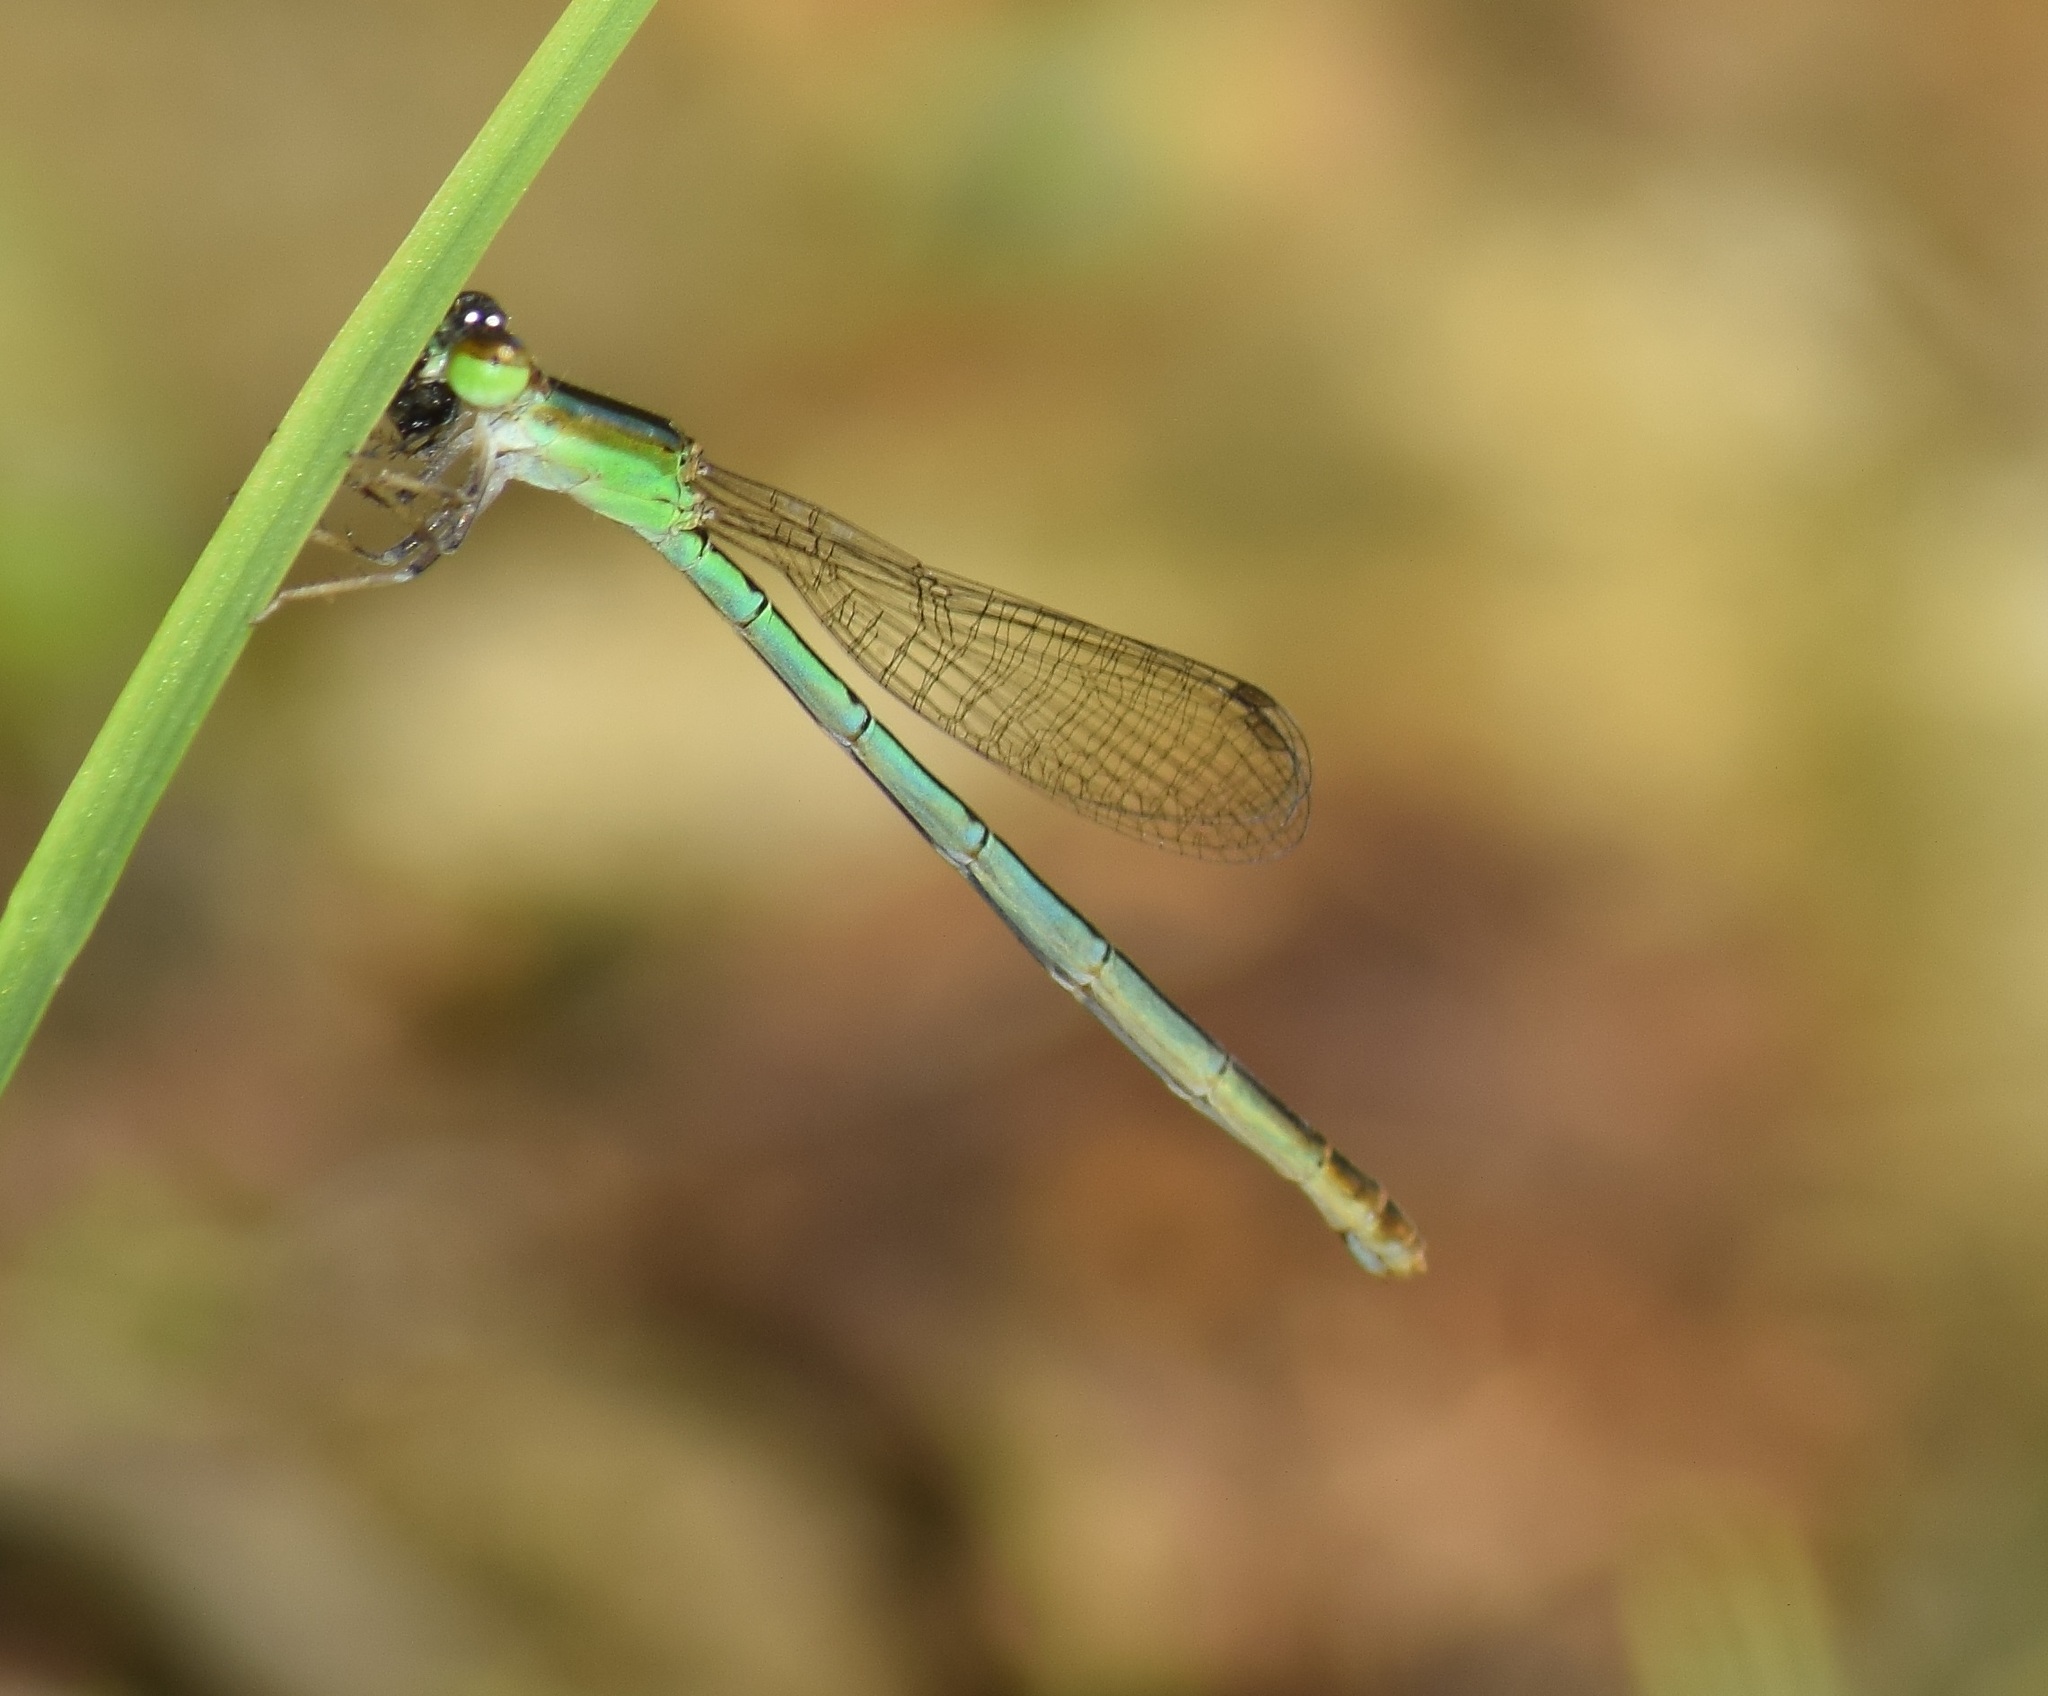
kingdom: Animalia
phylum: Arthropoda
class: Insecta
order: Odonata
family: Coenagrionidae
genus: Agriocnemis
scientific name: Agriocnemis pygmaea
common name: Pygmy wisp
